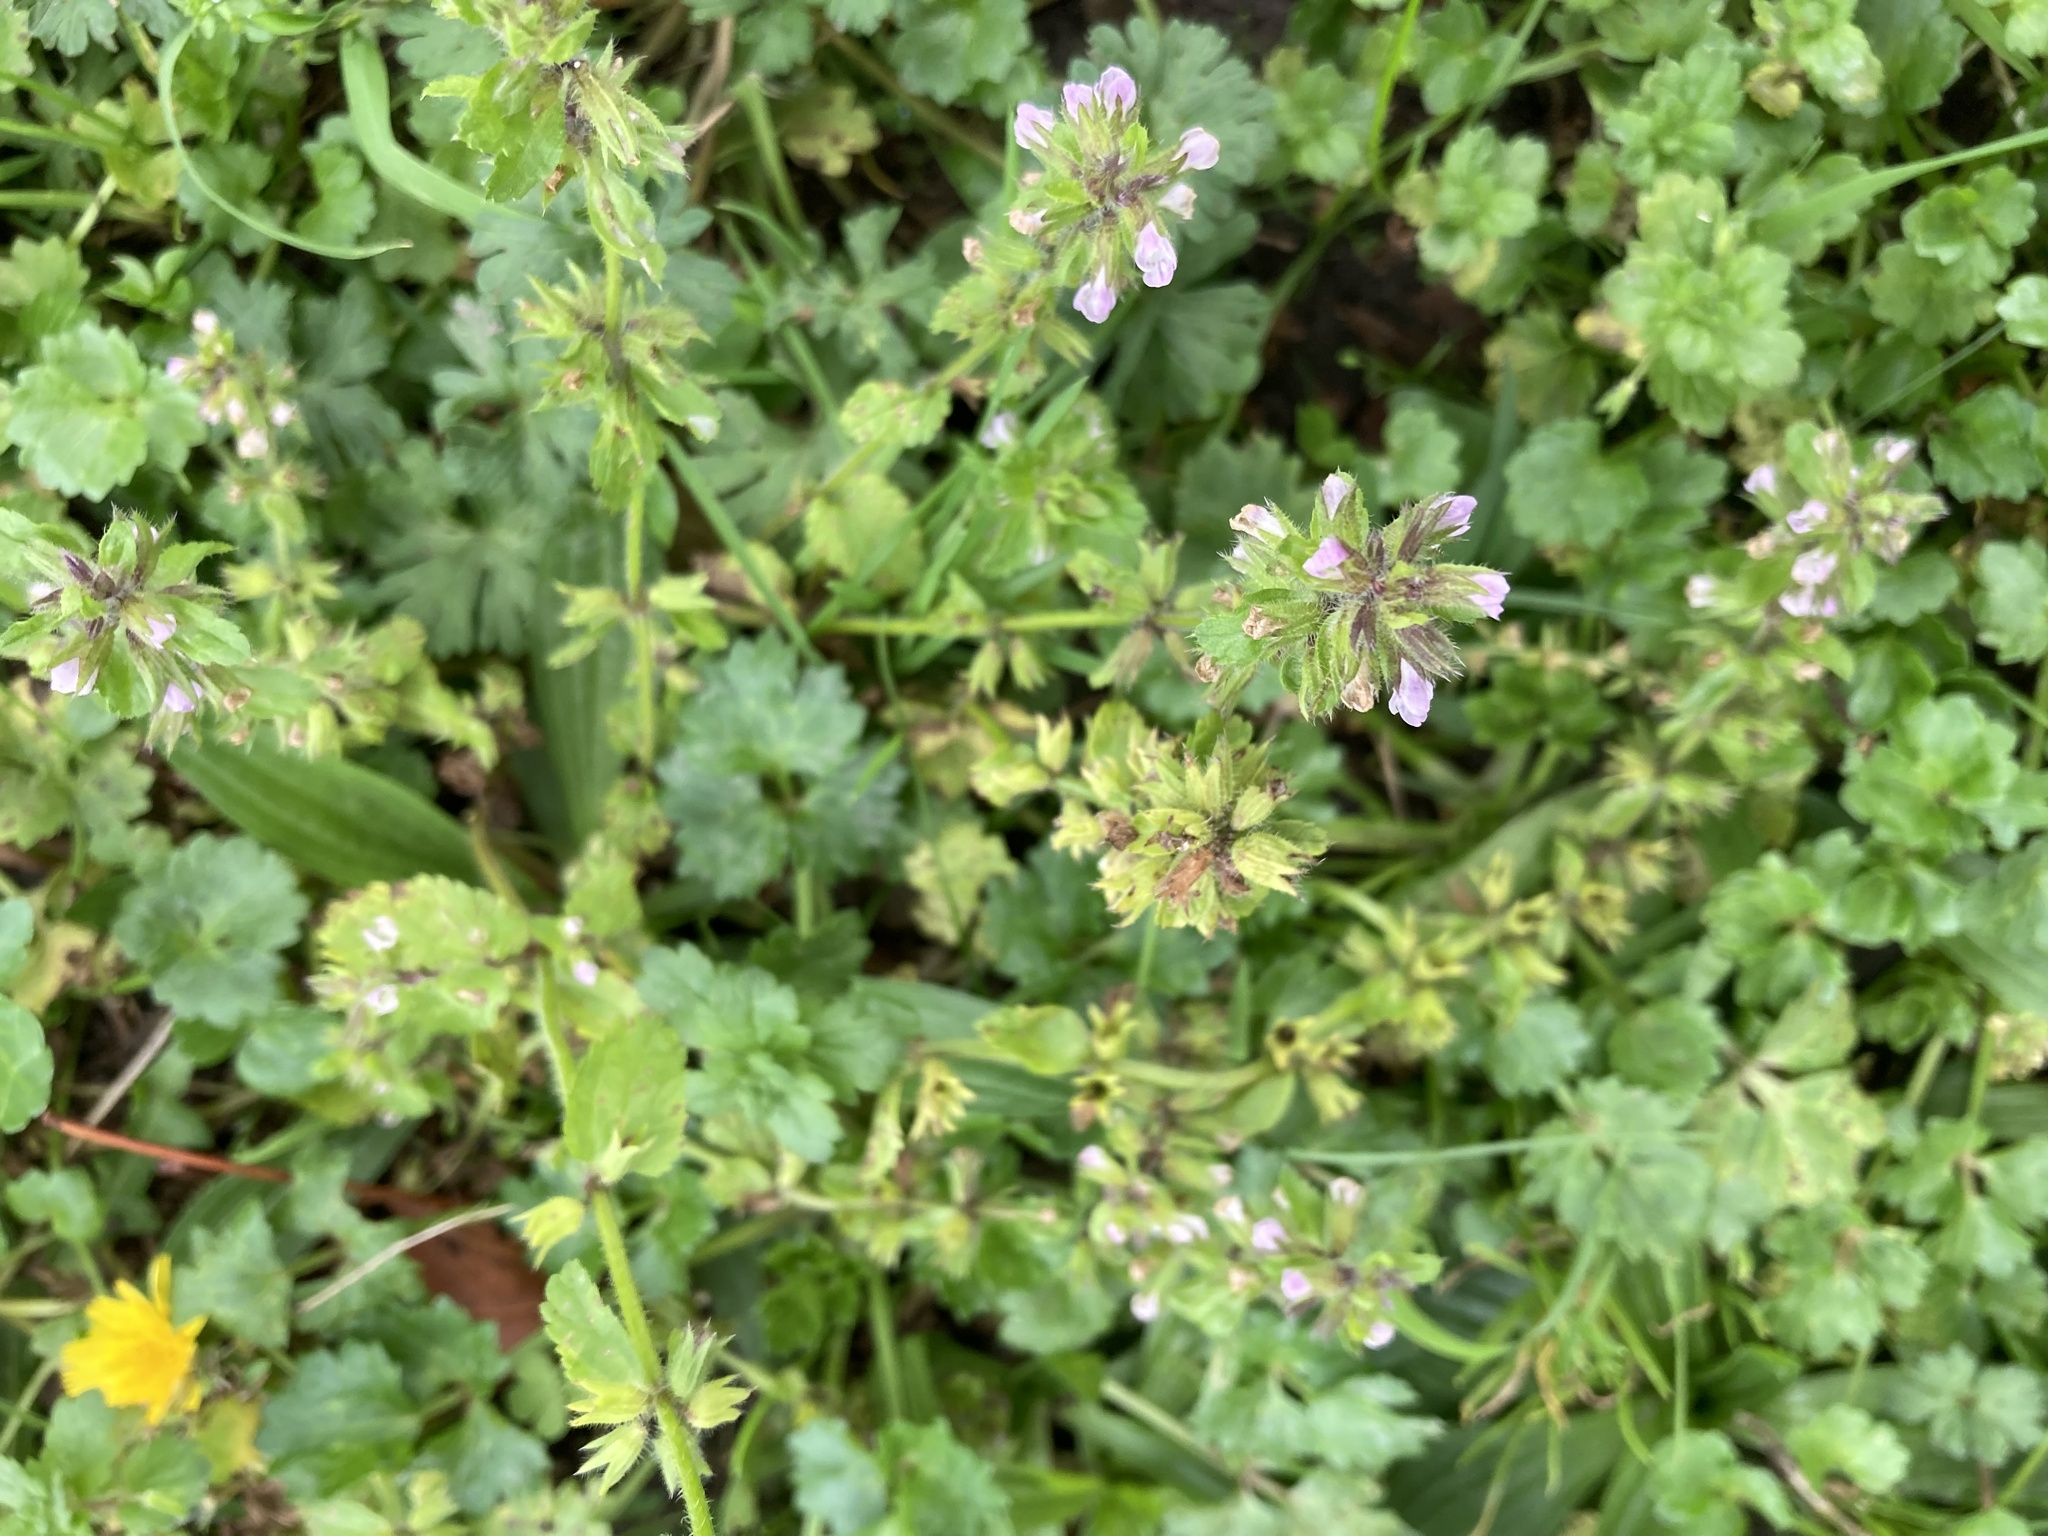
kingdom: Plantae
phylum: Tracheophyta
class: Magnoliopsida
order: Lamiales
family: Lamiaceae
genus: Stachys
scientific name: Stachys arvensis
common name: Field woundwort
